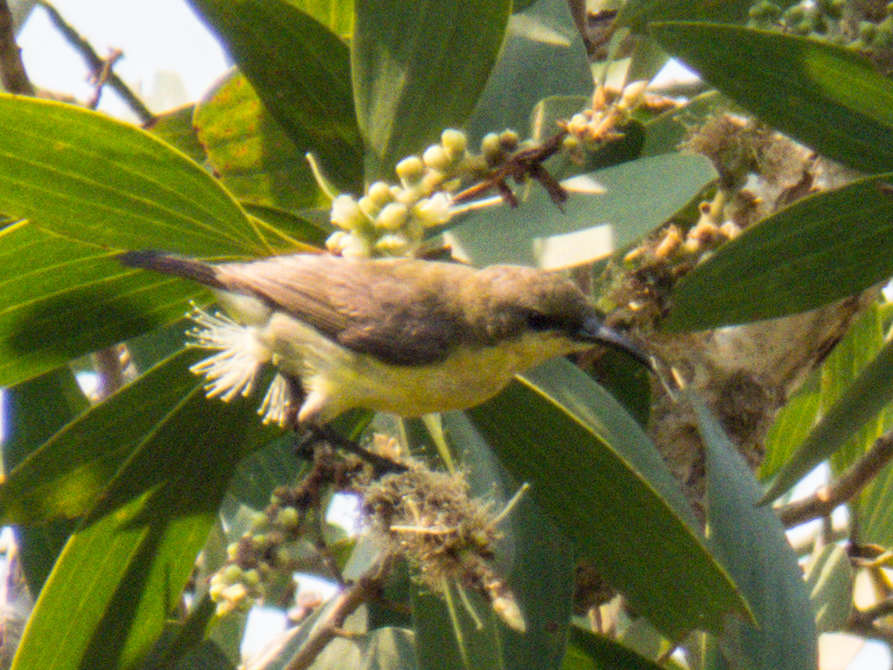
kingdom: Animalia
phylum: Chordata
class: Aves
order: Passeriformes
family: Nectariniidae
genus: Cinnyris
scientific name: Cinnyris
